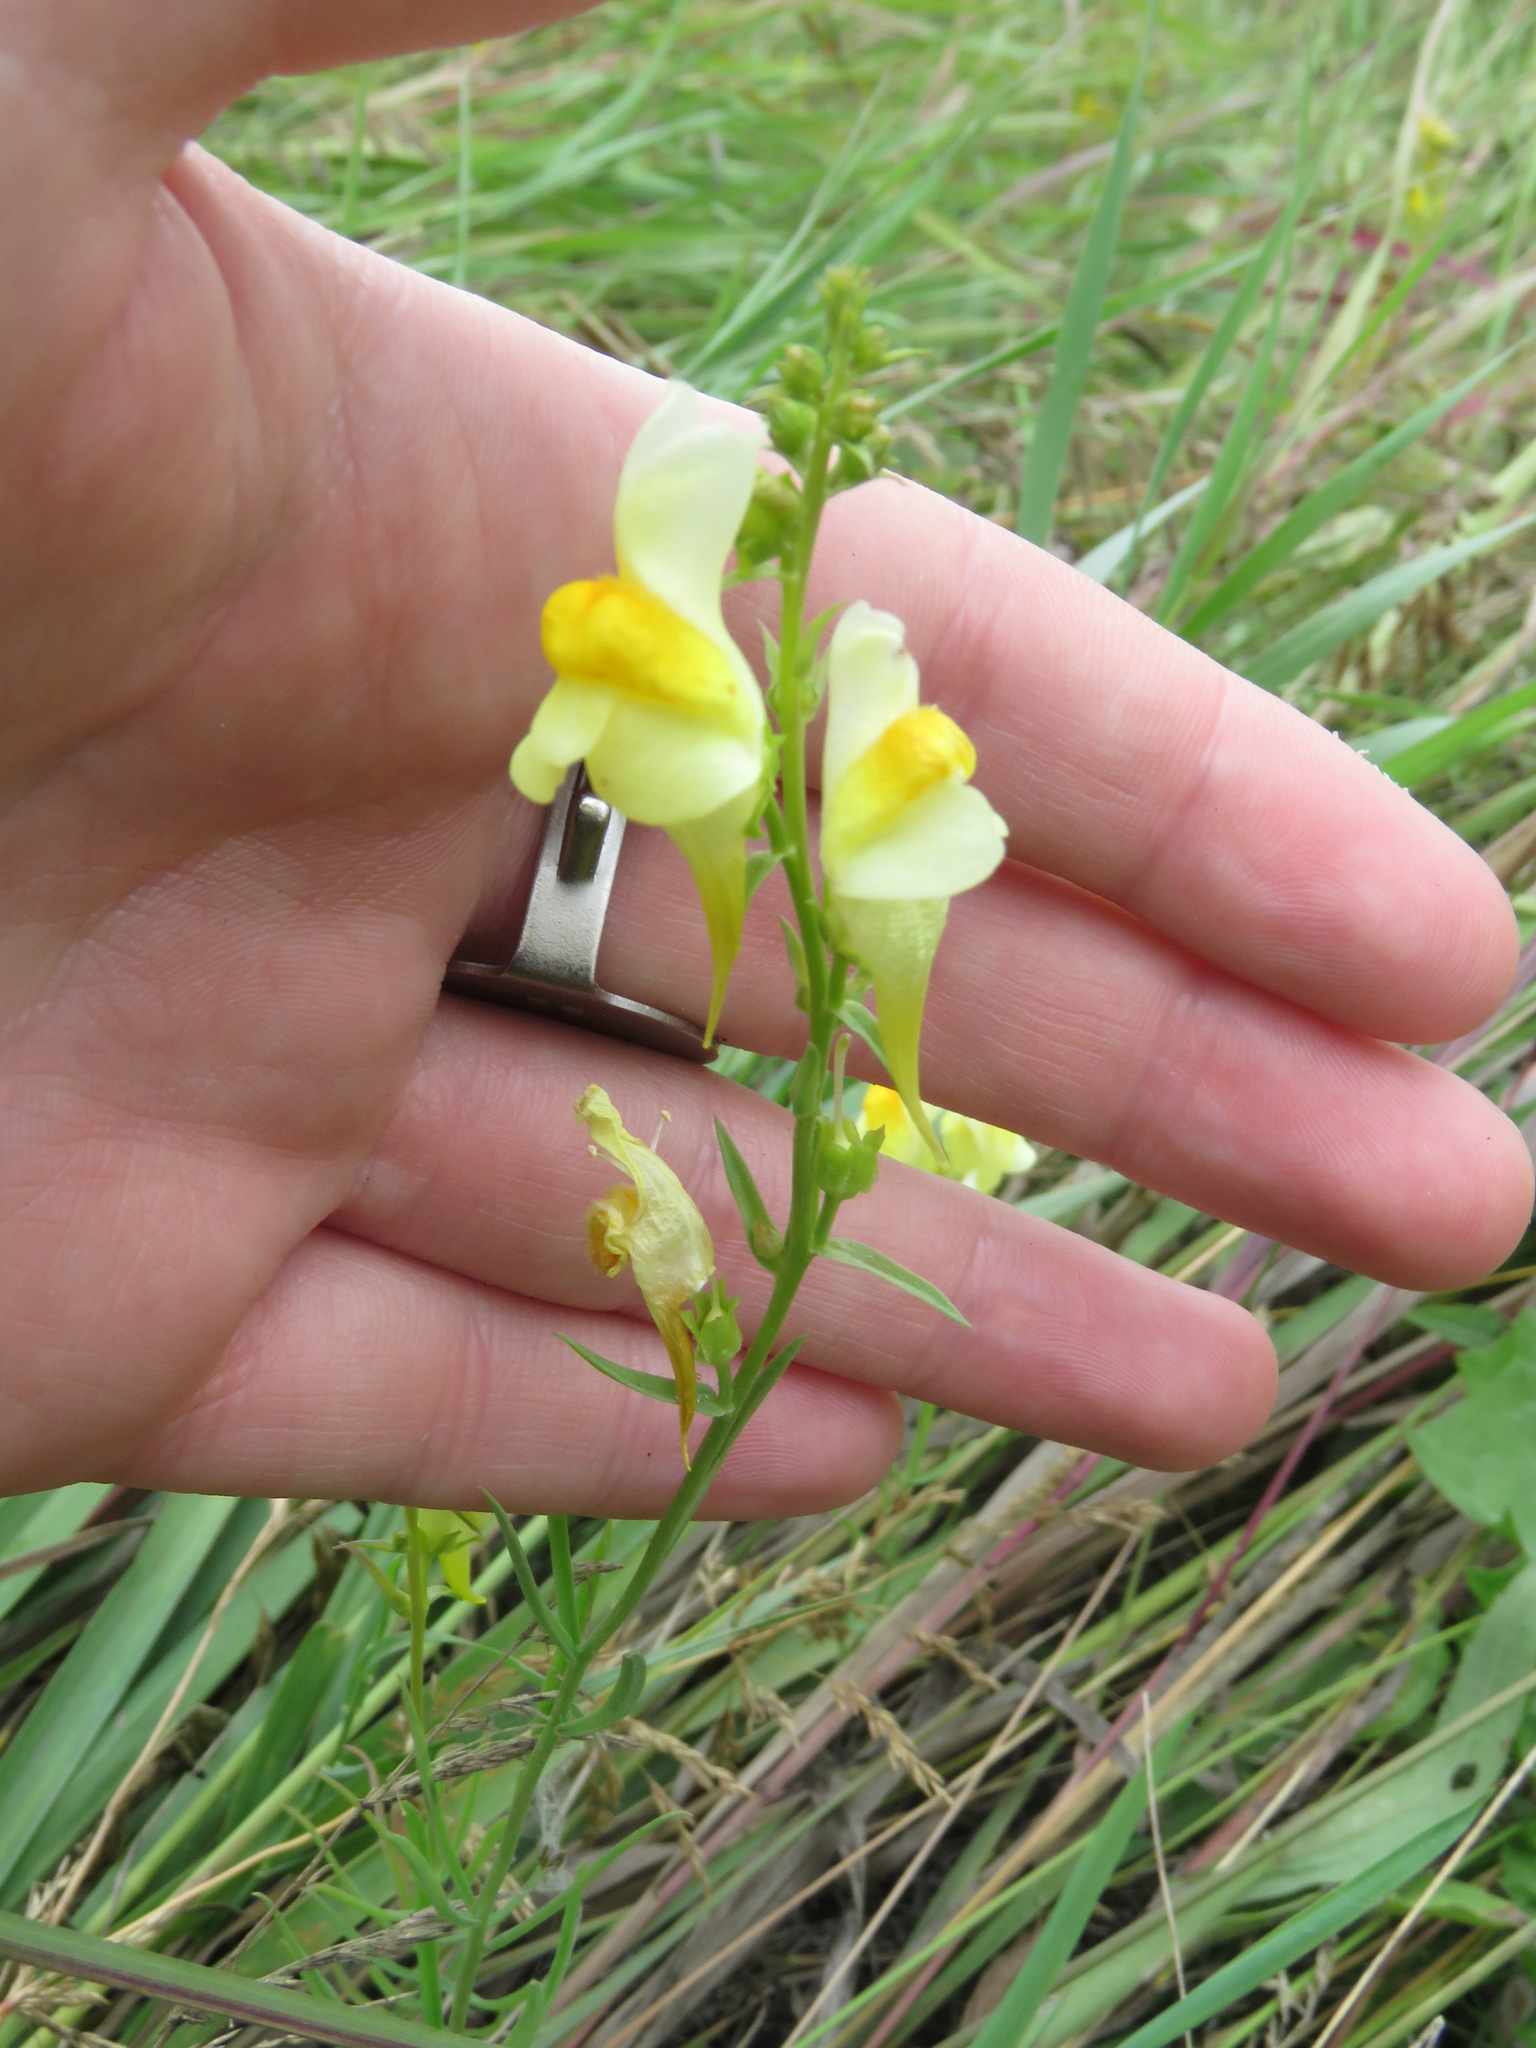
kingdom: Plantae
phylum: Tracheophyta
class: Magnoliopsida
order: Lamiales
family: Plantaginaceae
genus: Linaria
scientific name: Linaria vulgaris
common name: Butter and eggs
